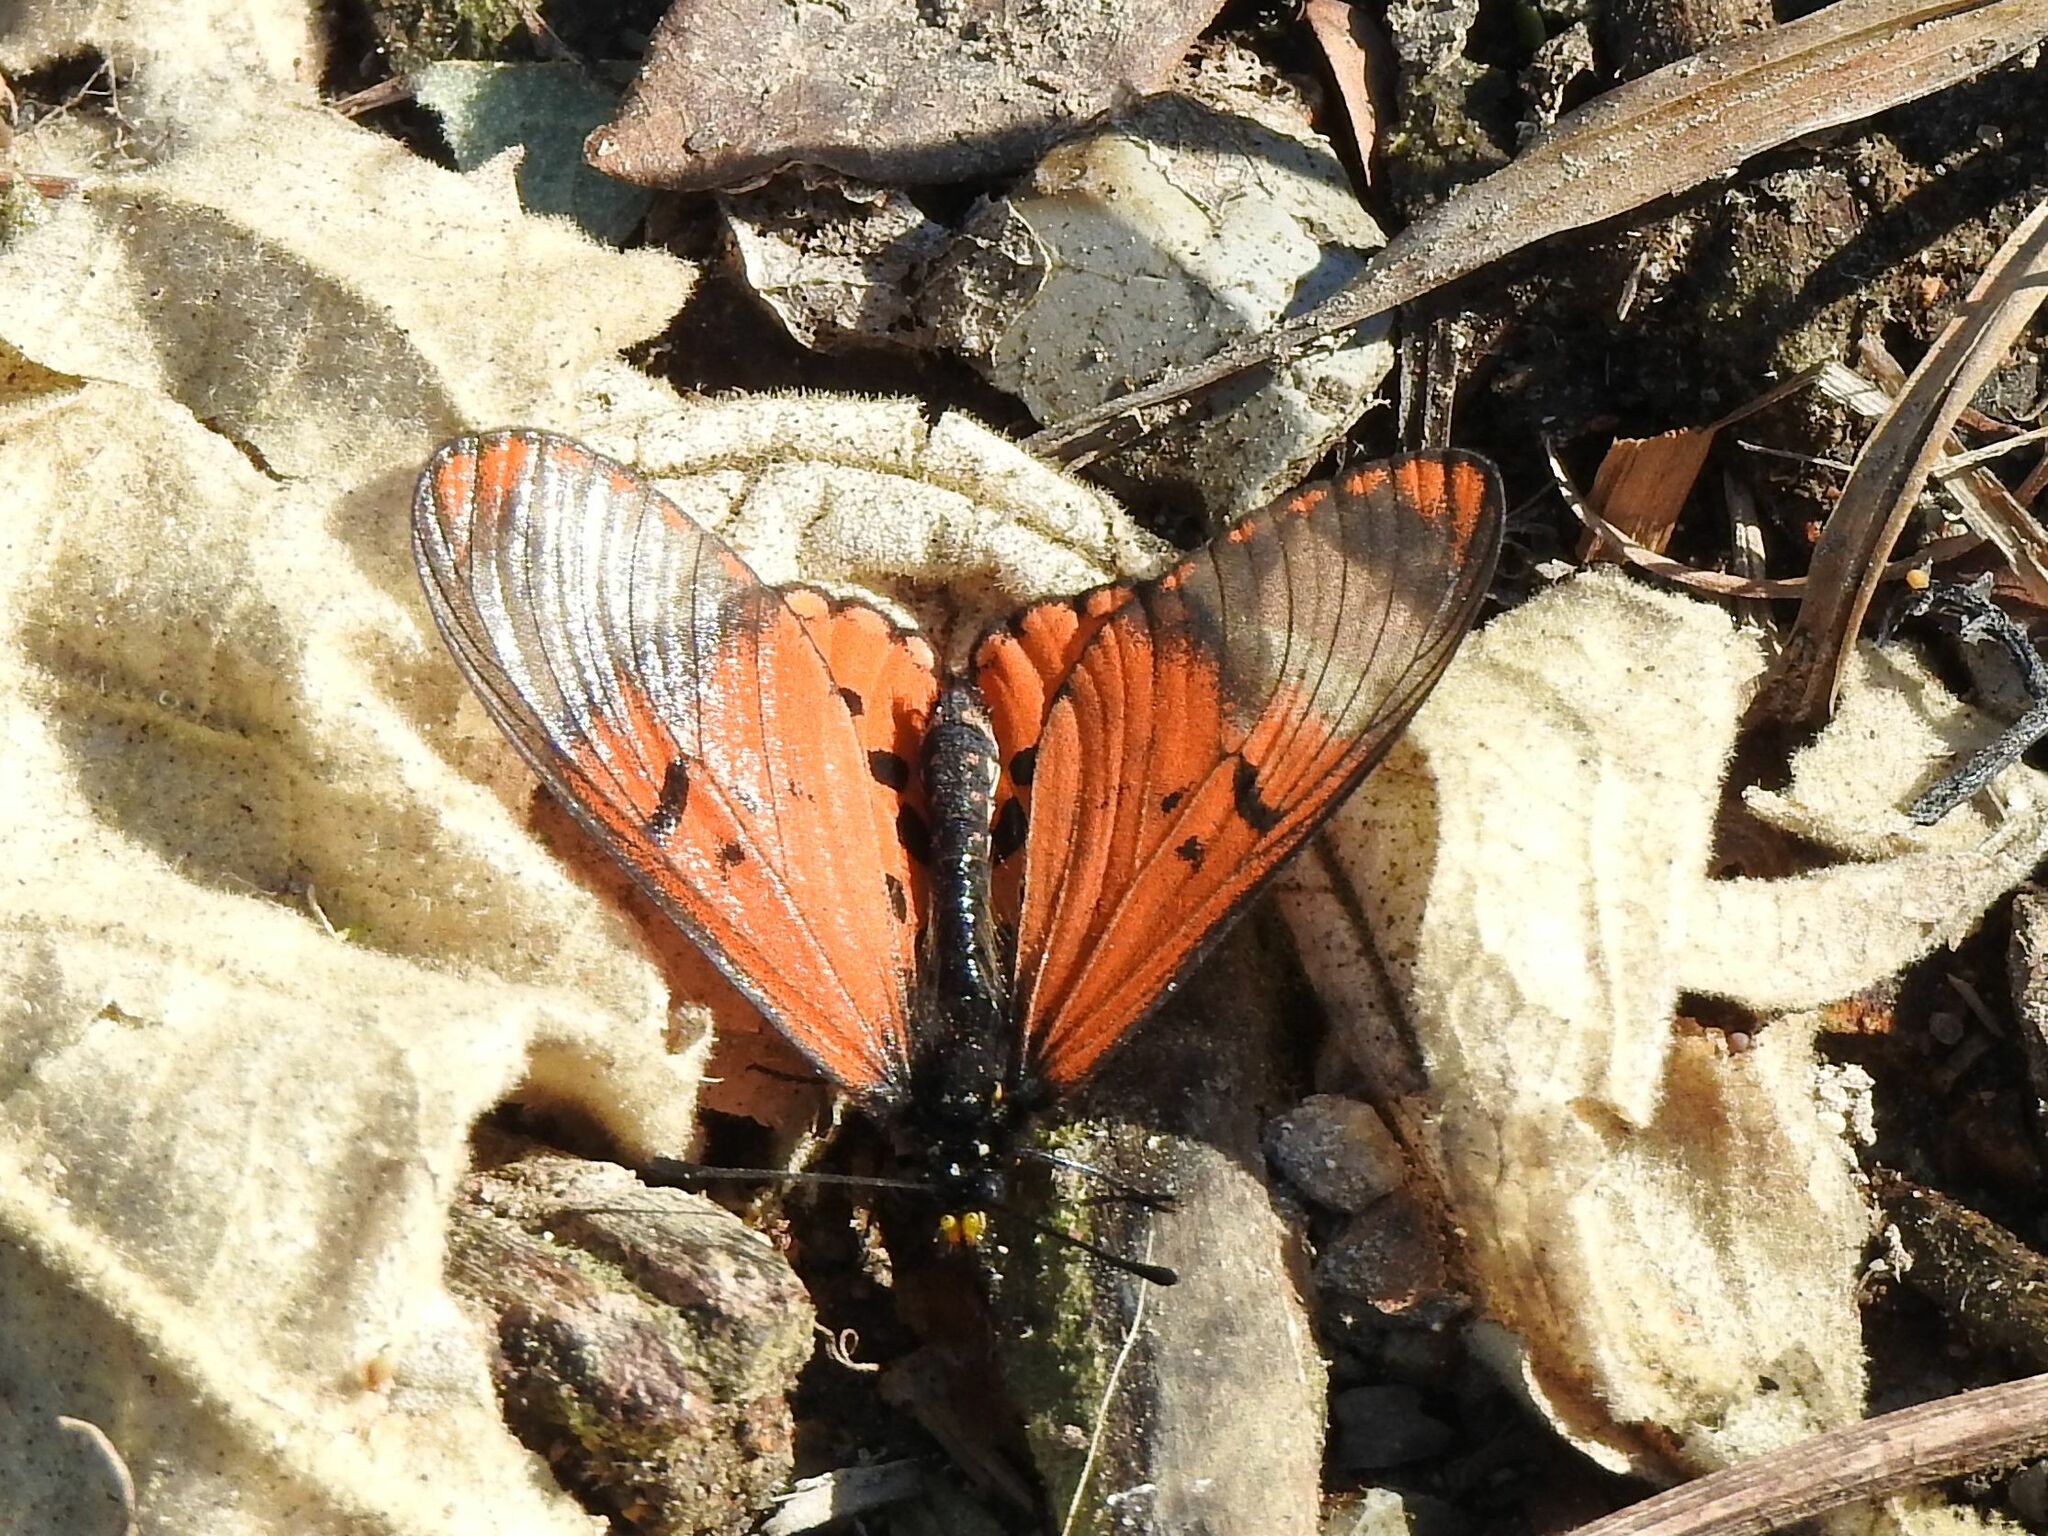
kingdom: Animalia
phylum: Arthropoda
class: Insecta
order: Lepidoptera
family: Nymphalidae
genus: Acraea
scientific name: Acraea horta
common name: Garden acraea
